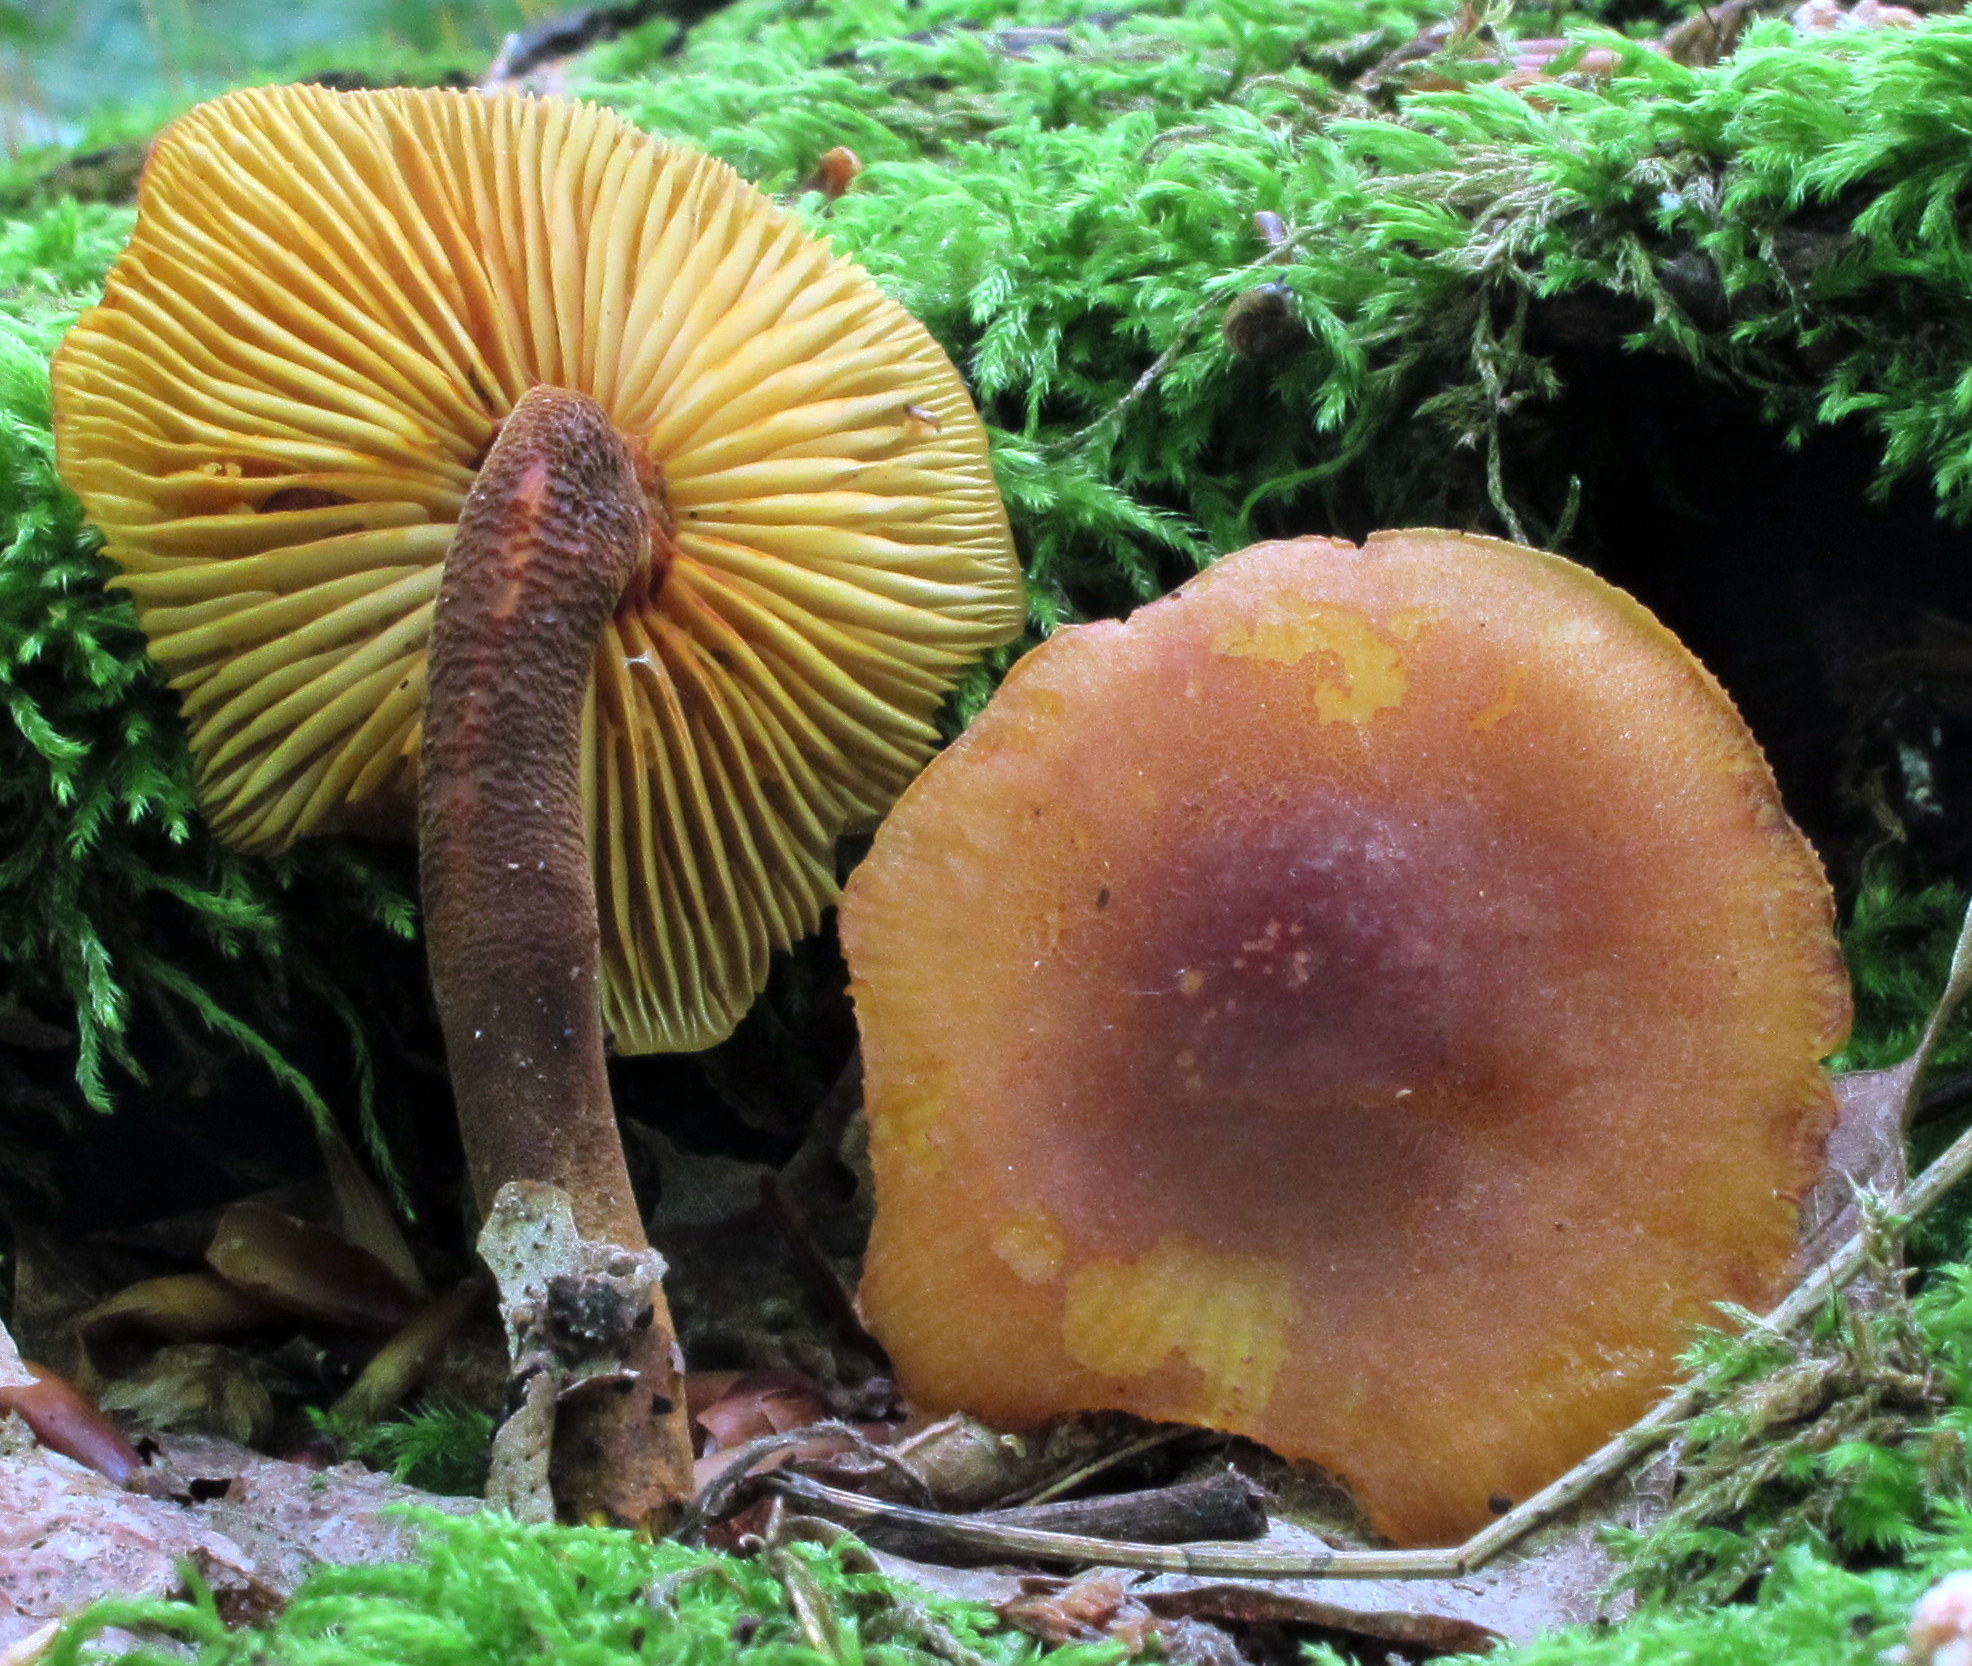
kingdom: Fungi
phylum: Basidiomycota
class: Agaricomycetes
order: Agaricales
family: Mycenaceae
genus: Xeromphalina
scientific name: Xeromphalina tenuipes
